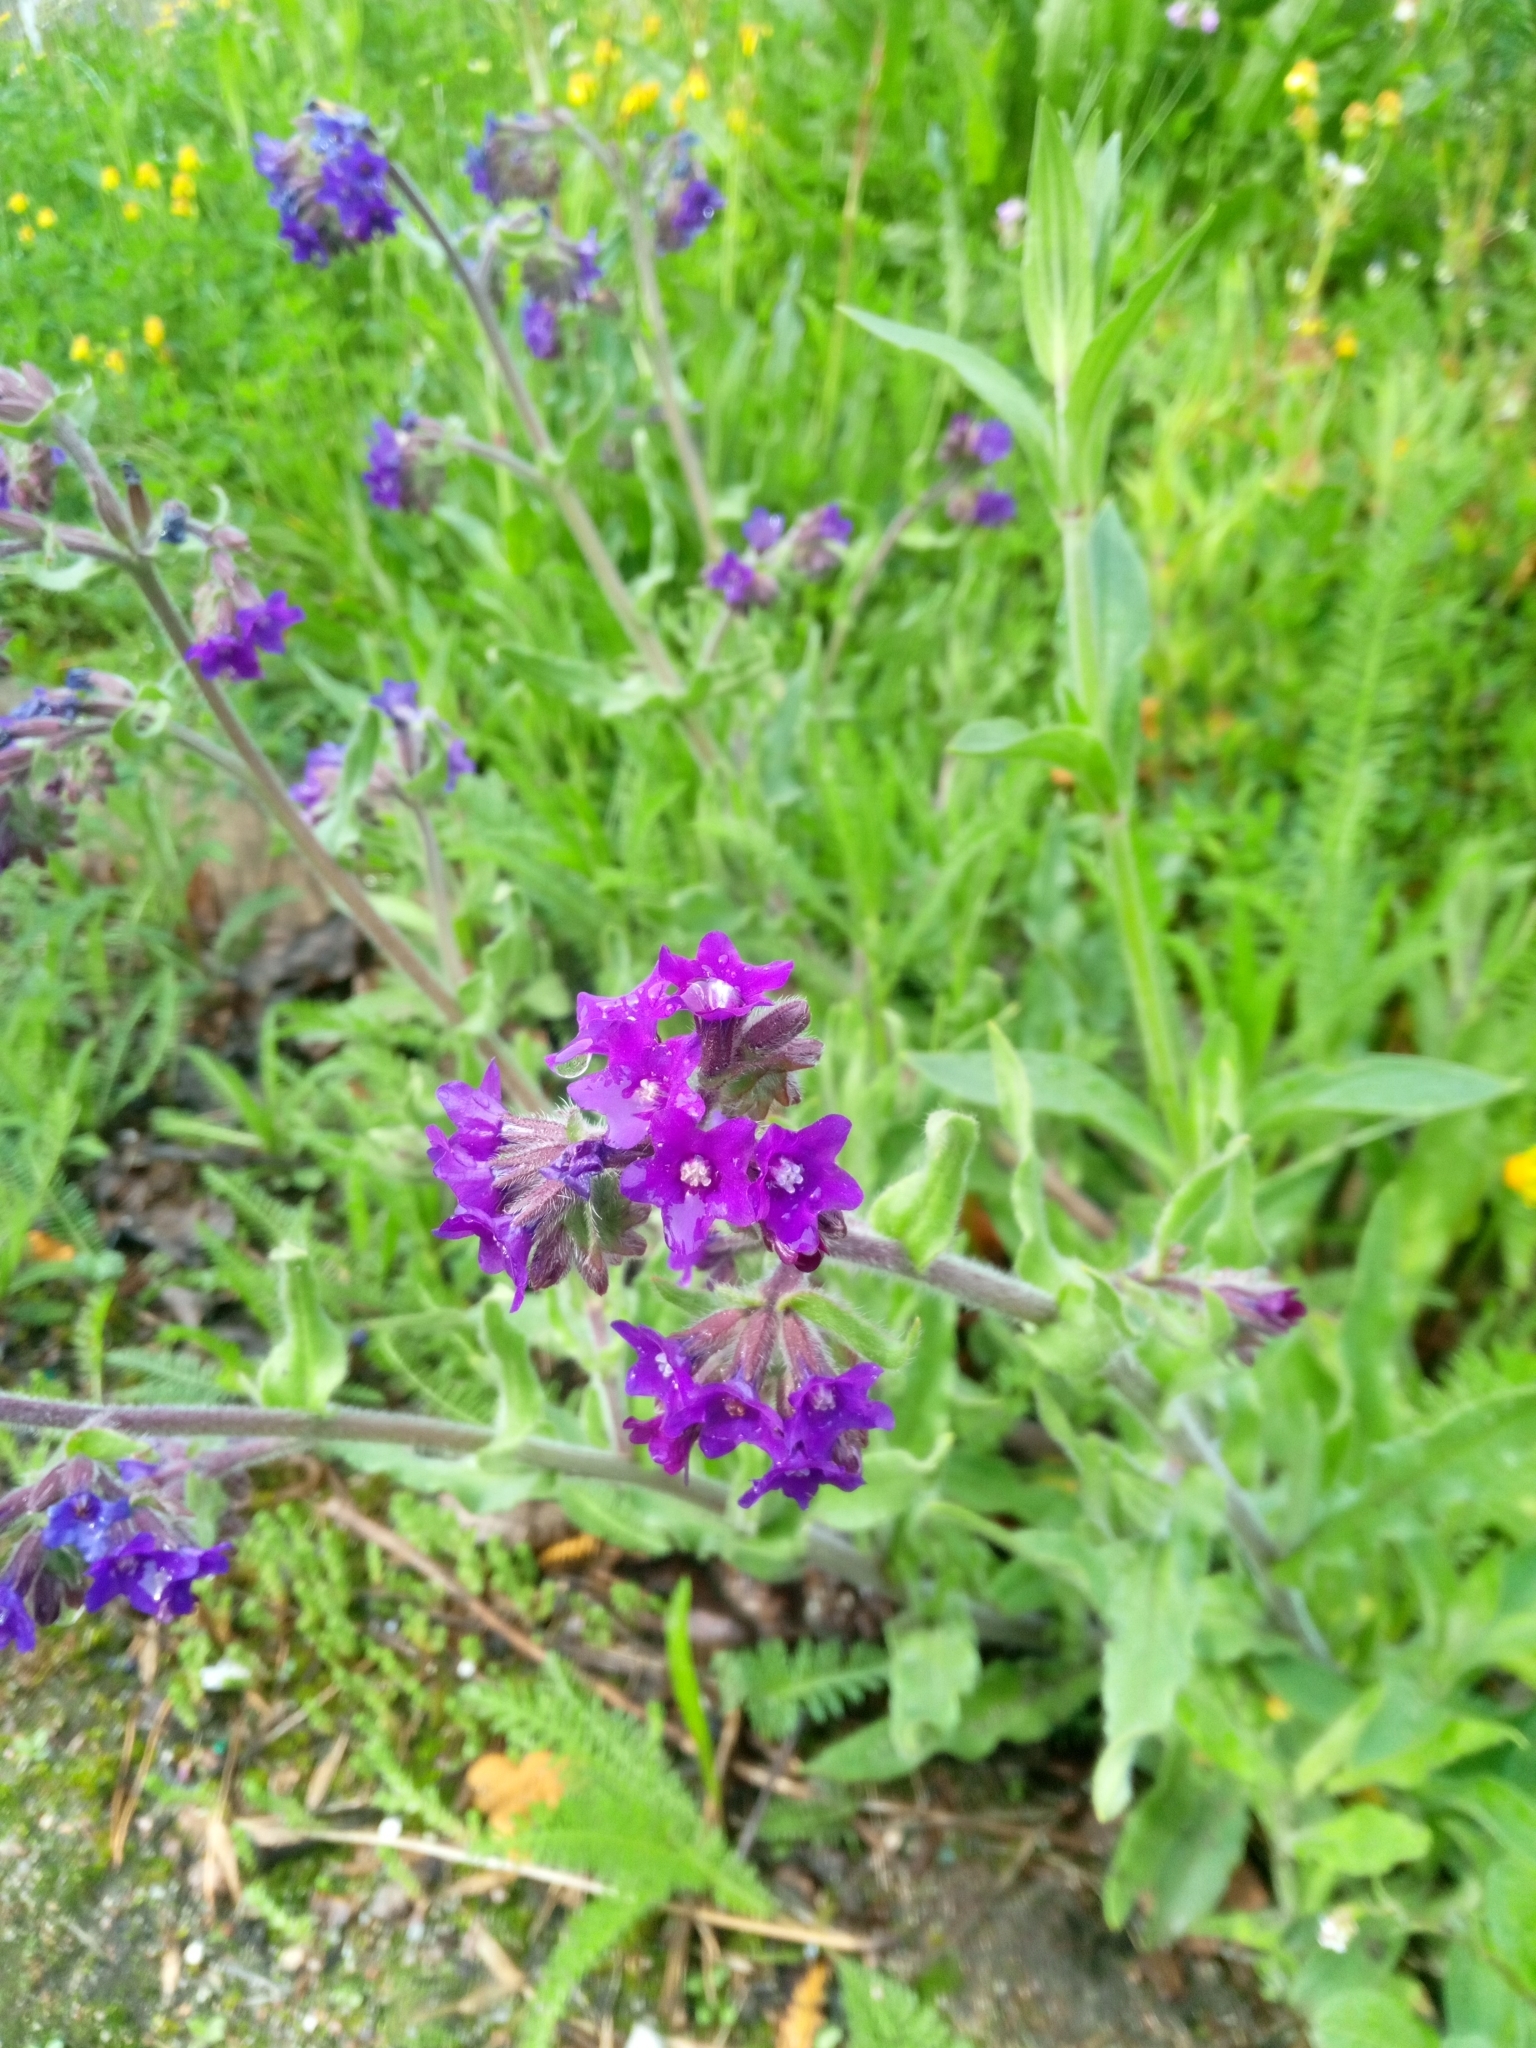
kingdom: Plantae
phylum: Tracheophyta
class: Magnoliopsida
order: Boraginales
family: Boraginaceae
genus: Anchusa
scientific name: Anchusa officinalis
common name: Alkanet
